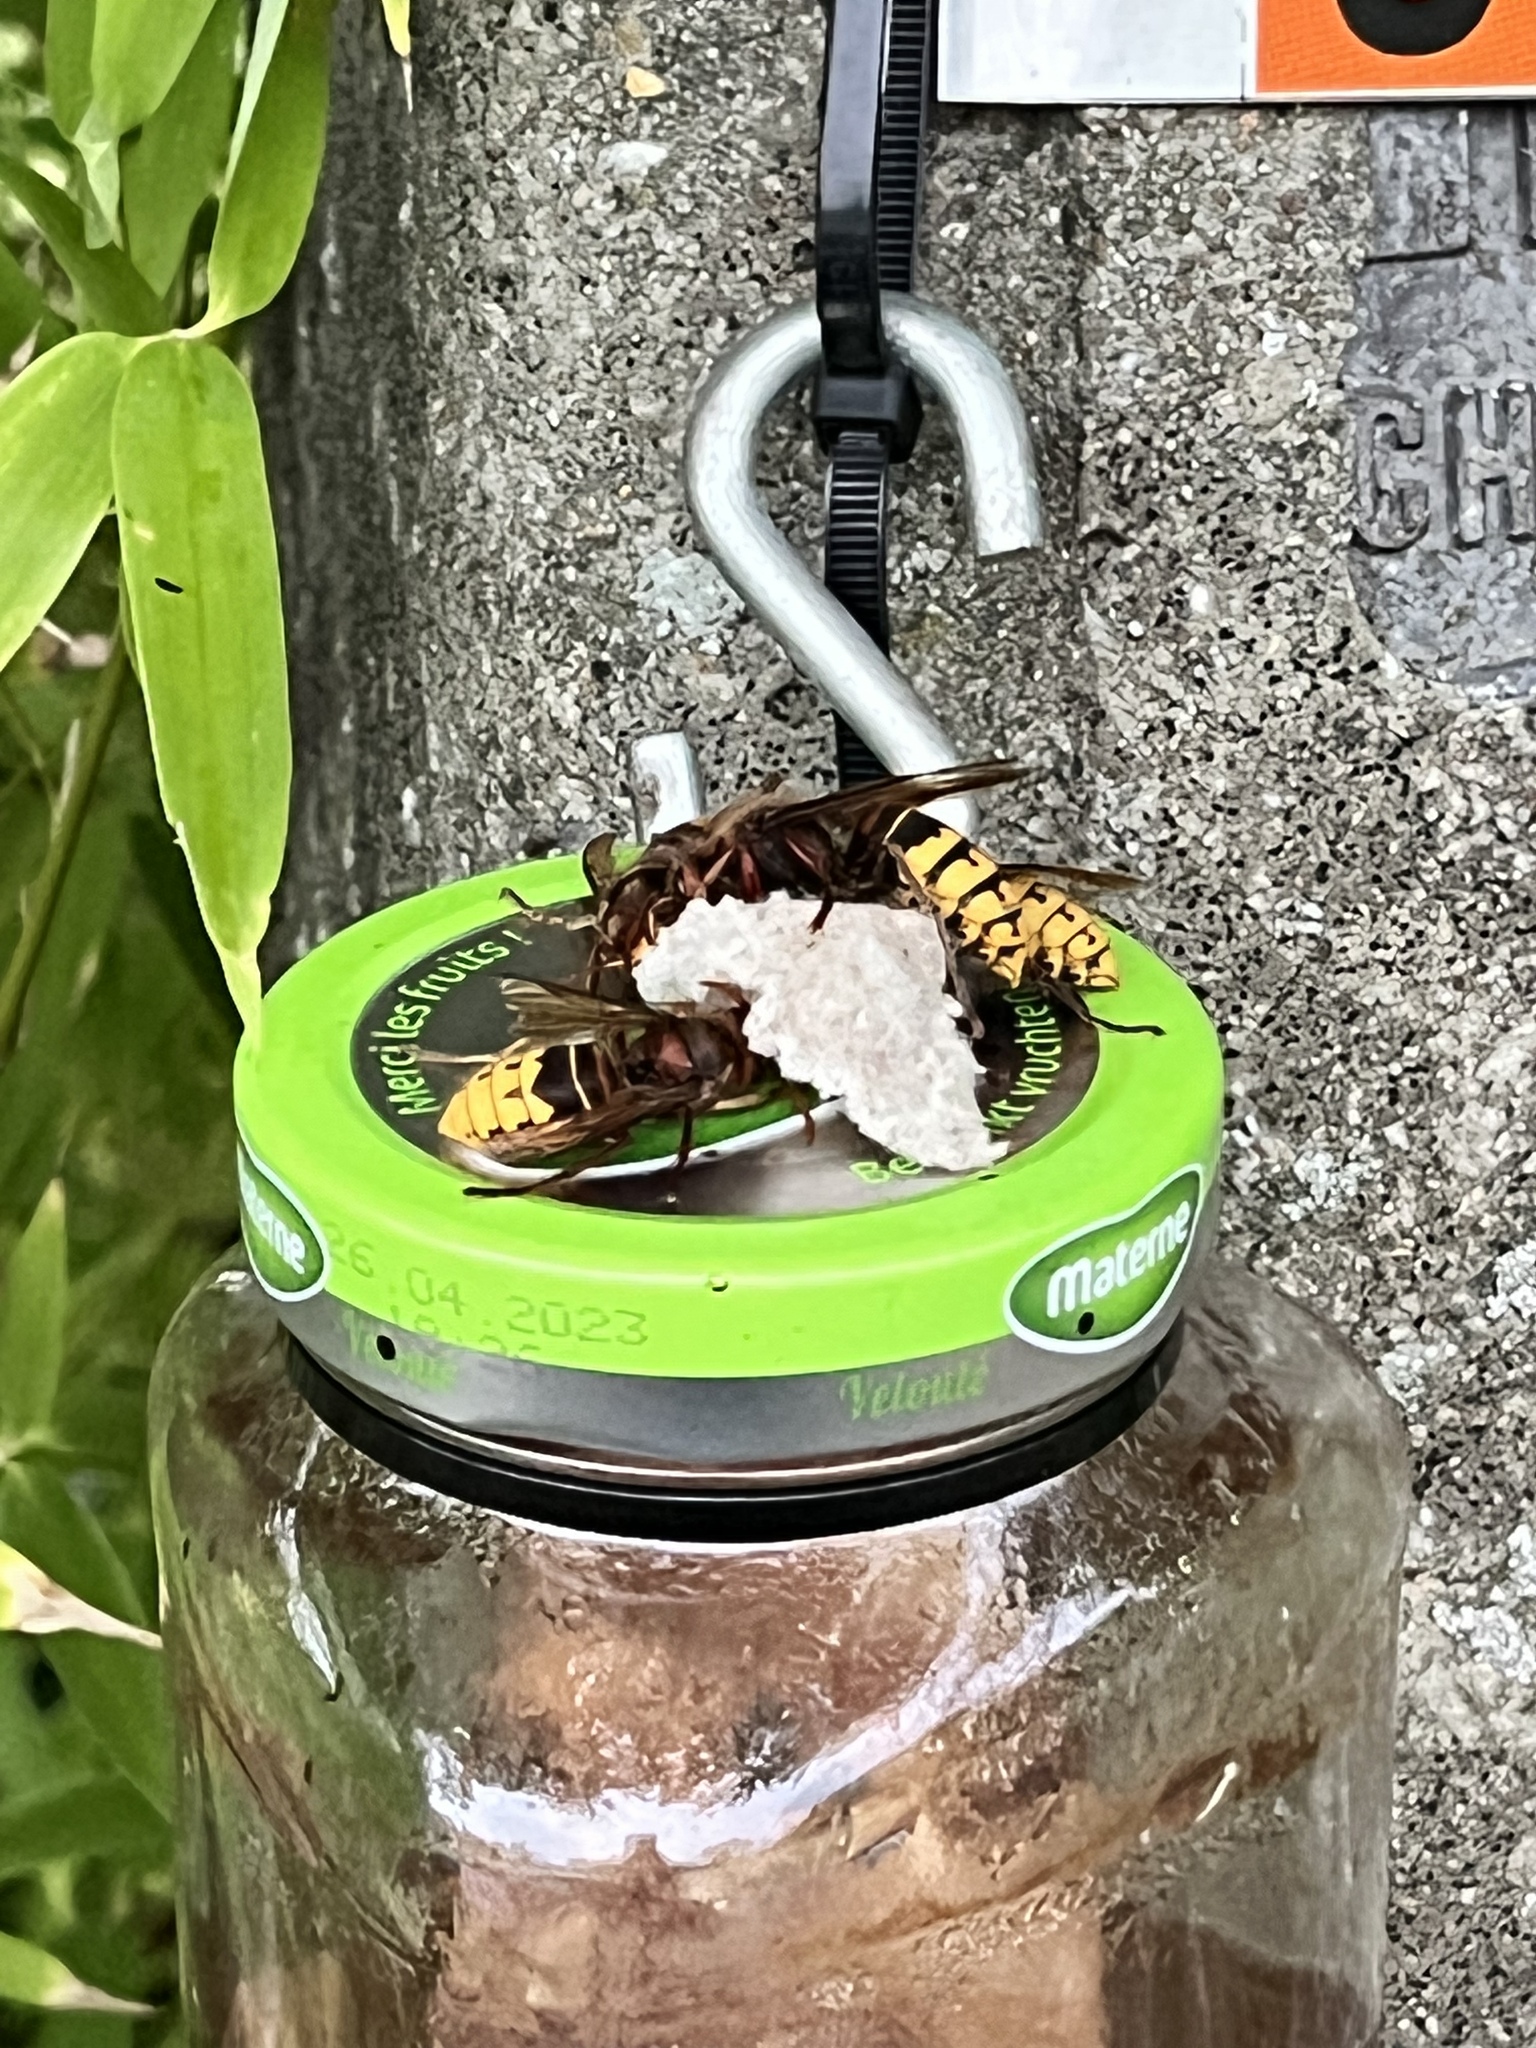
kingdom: Animalia
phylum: Arthropoda
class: Insecta
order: Hymenoptera
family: Vespidae
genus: Vespa
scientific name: Vespa crabro
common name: Hornet
